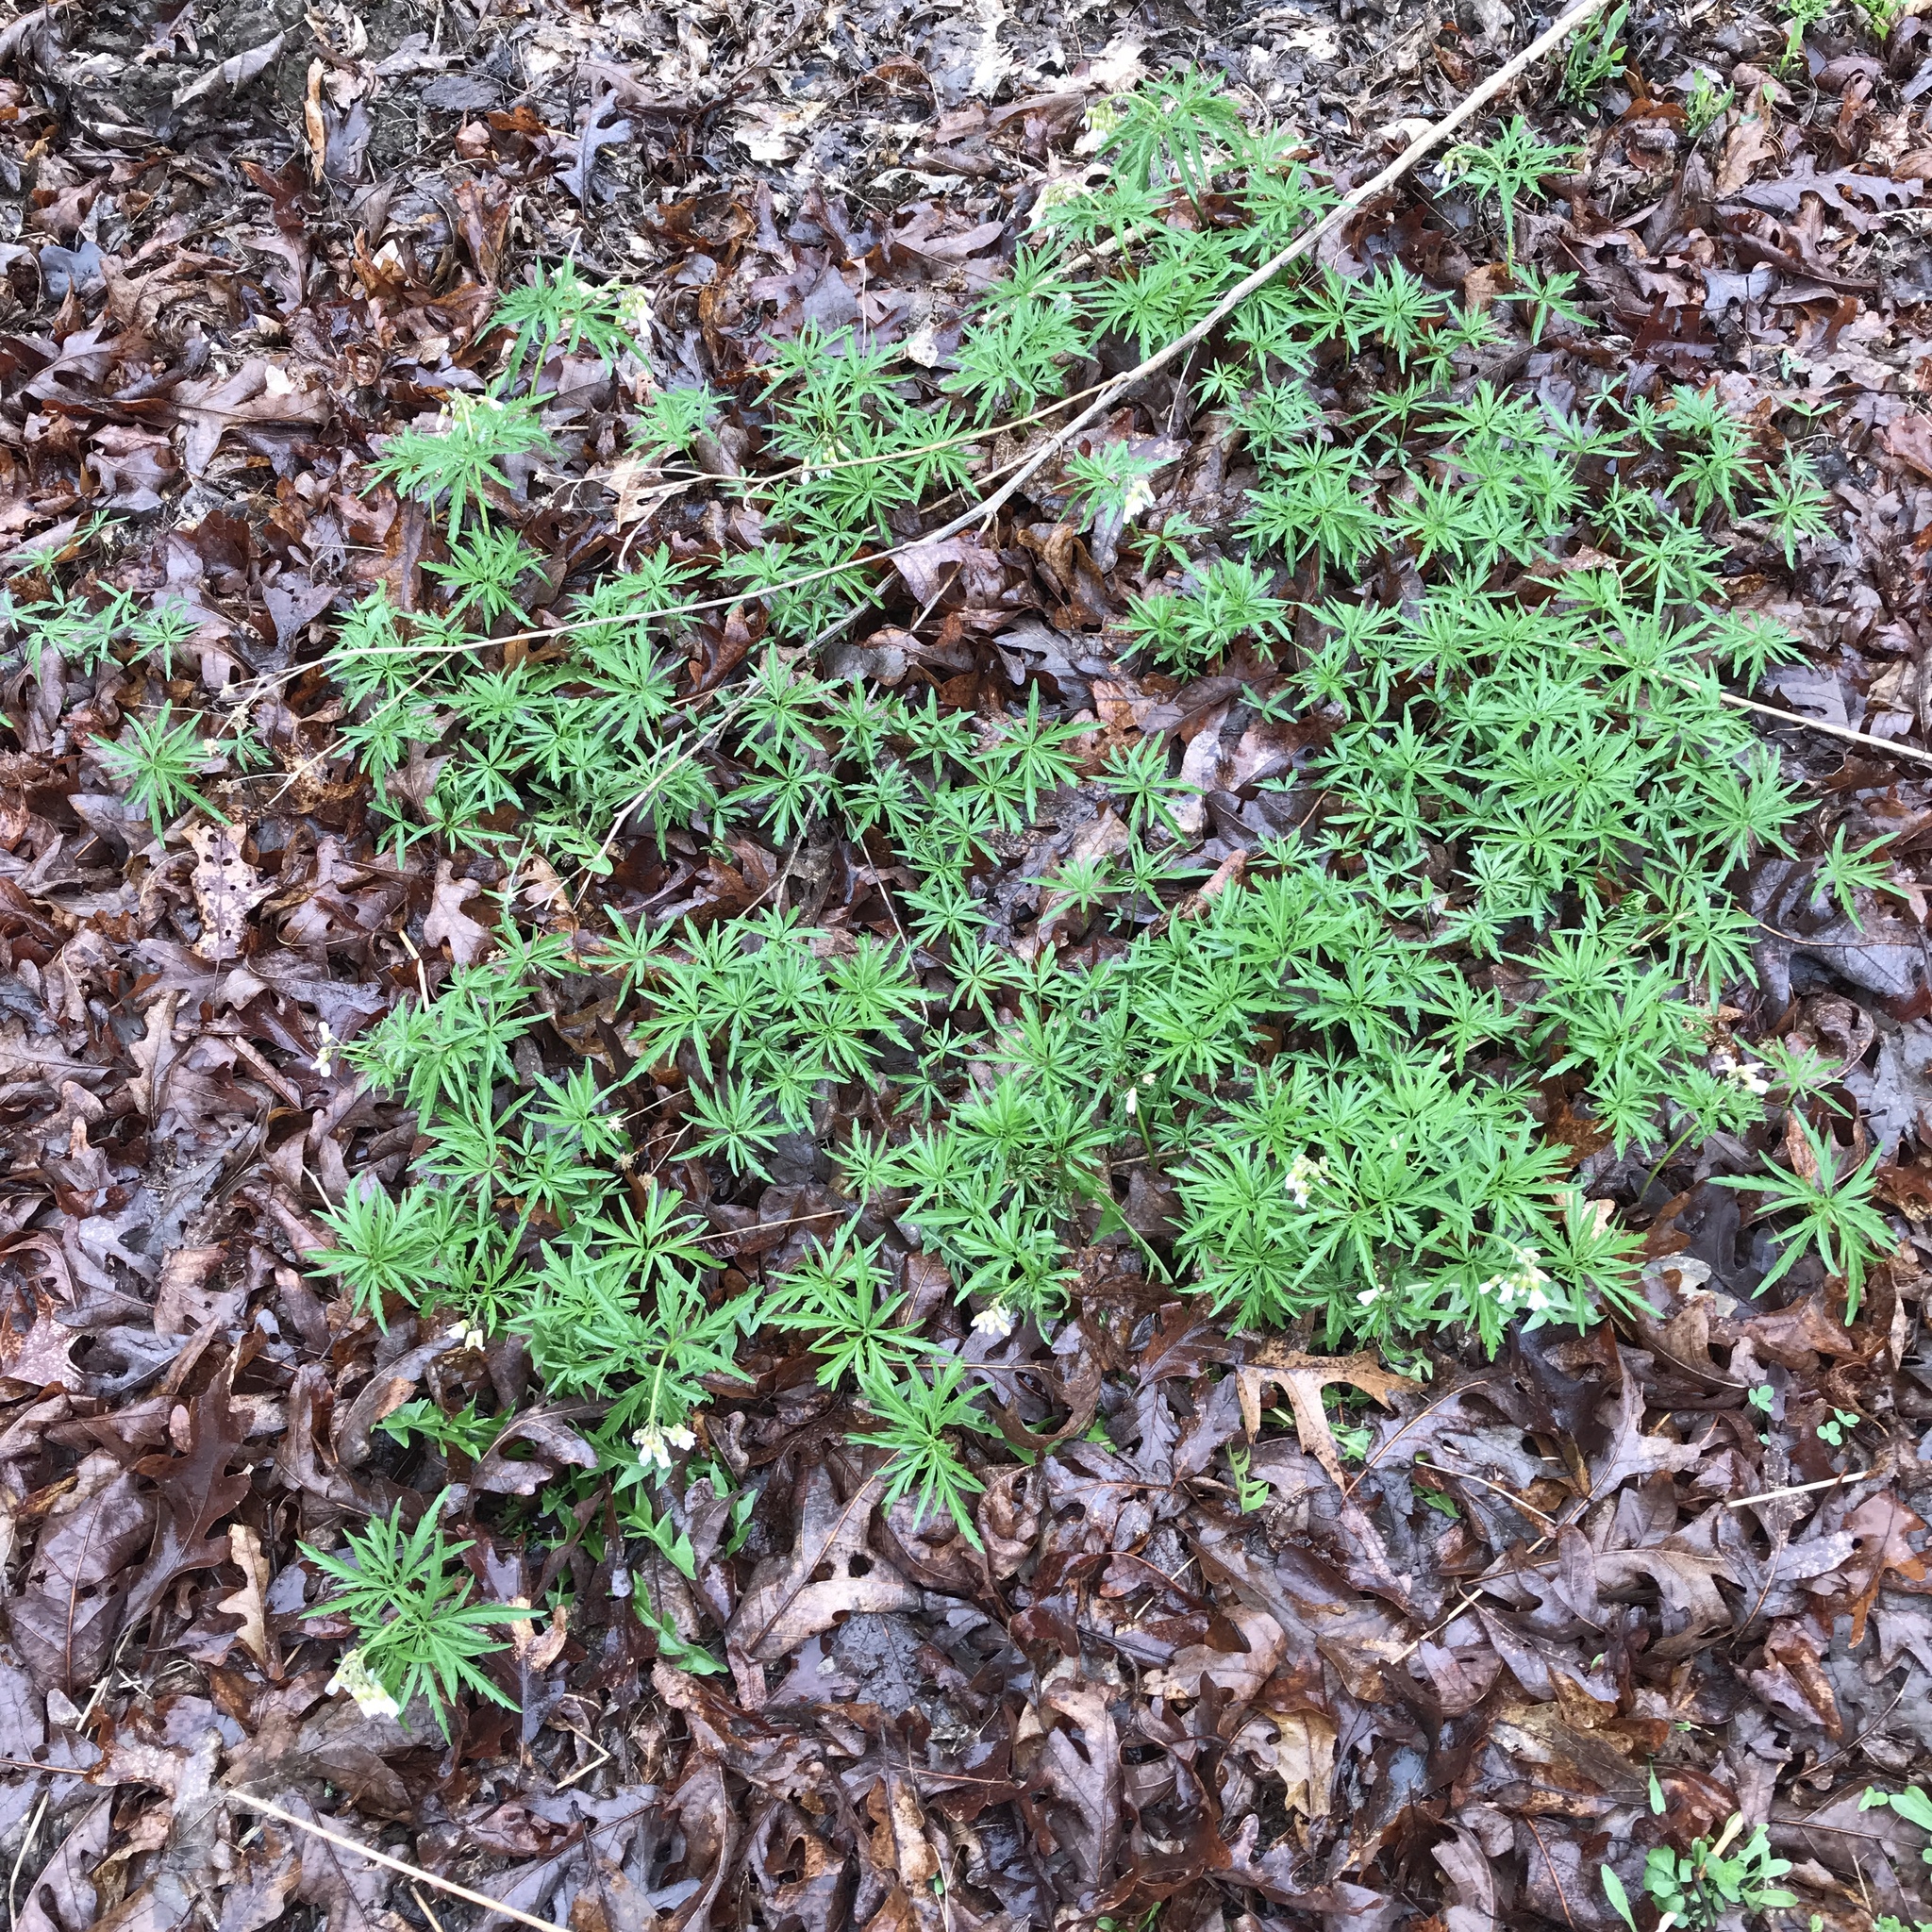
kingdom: Plantae
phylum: Tracheophyta
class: Magnoliopsida
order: Brassicales
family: Brassicaceae
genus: Cardamine
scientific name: Cardamine concatenata
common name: Cut-leaf toothcup
